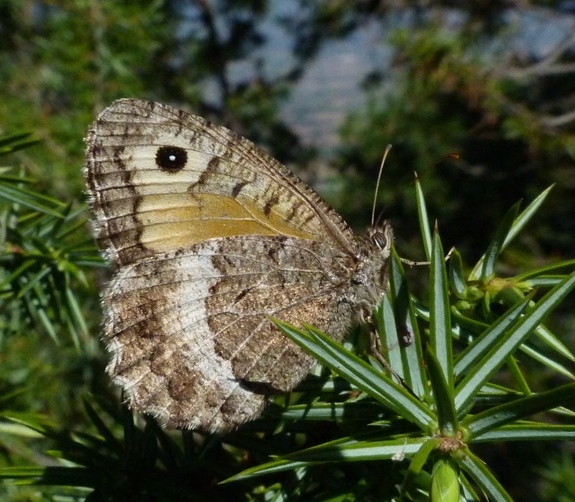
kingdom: Animalia
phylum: Arthropoda
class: Insecta
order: Lepidoptera
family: Nymphalidae
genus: Arethusana
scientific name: Arethusana arethusa
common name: False grayling
